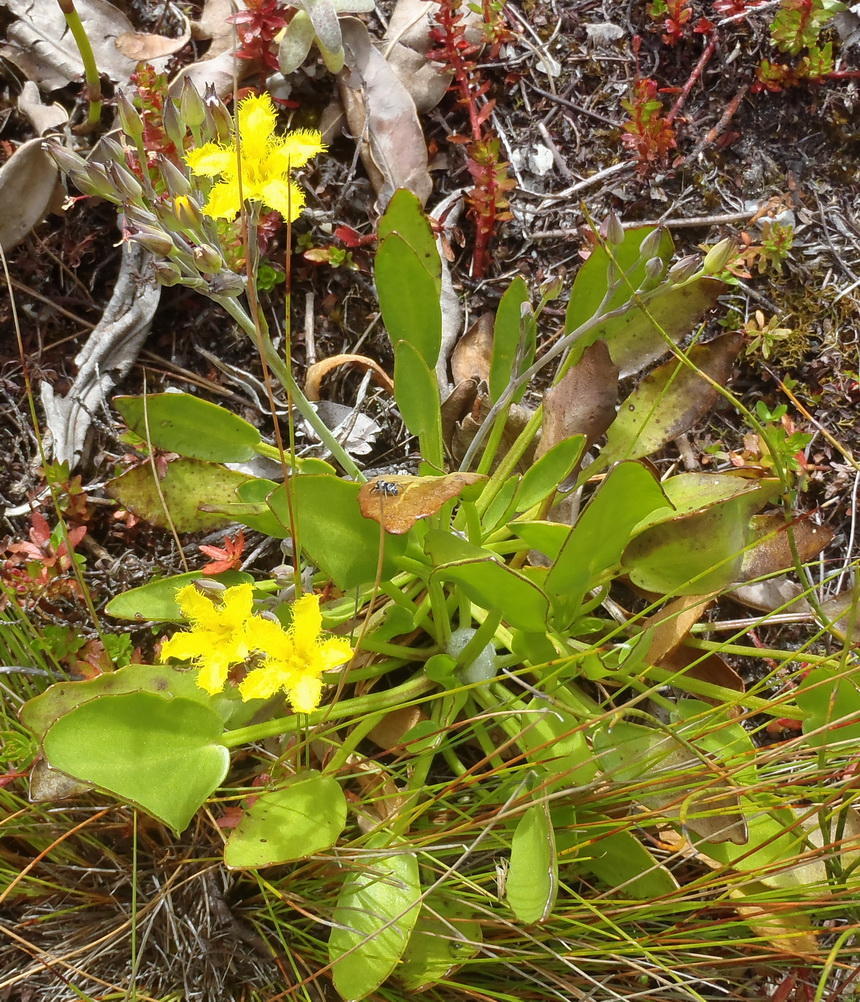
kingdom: Plantae
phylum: Tracheophyta
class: Magnoliopsida
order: Asterales
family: Menyanthaceae
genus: Villarsia
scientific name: Villarsia capensis
